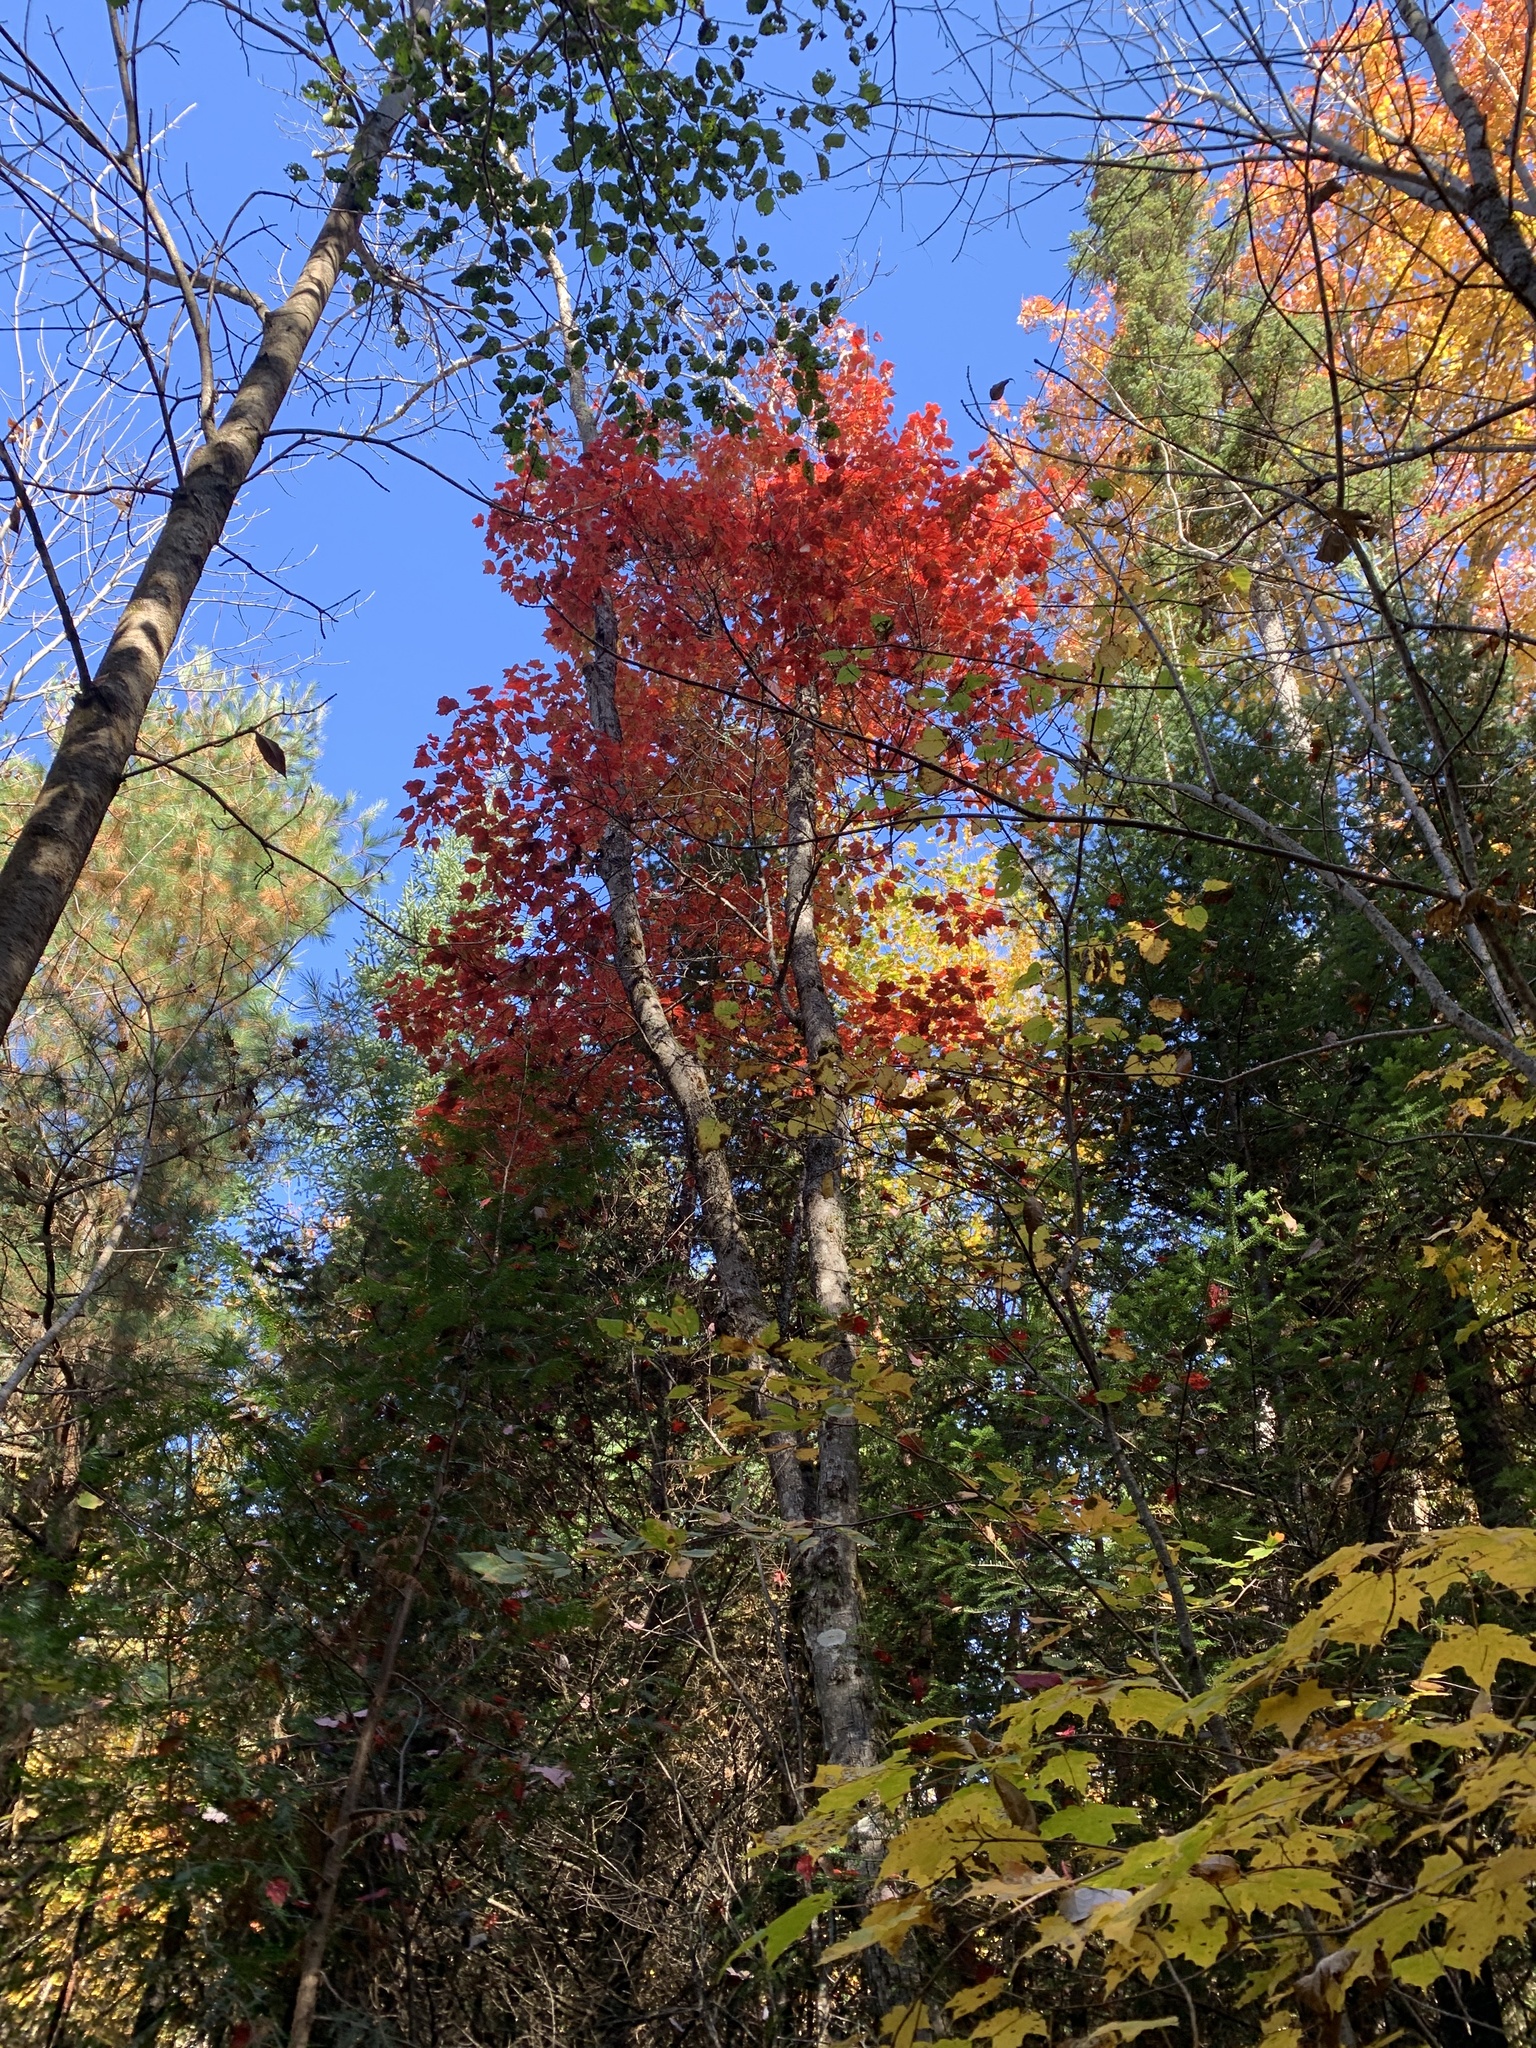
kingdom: Plantae
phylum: Tracheophyta
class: Magnoliopsida
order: Sapindales
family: Sapindaceae
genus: Acer
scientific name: Acer rubrum
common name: Red maple
